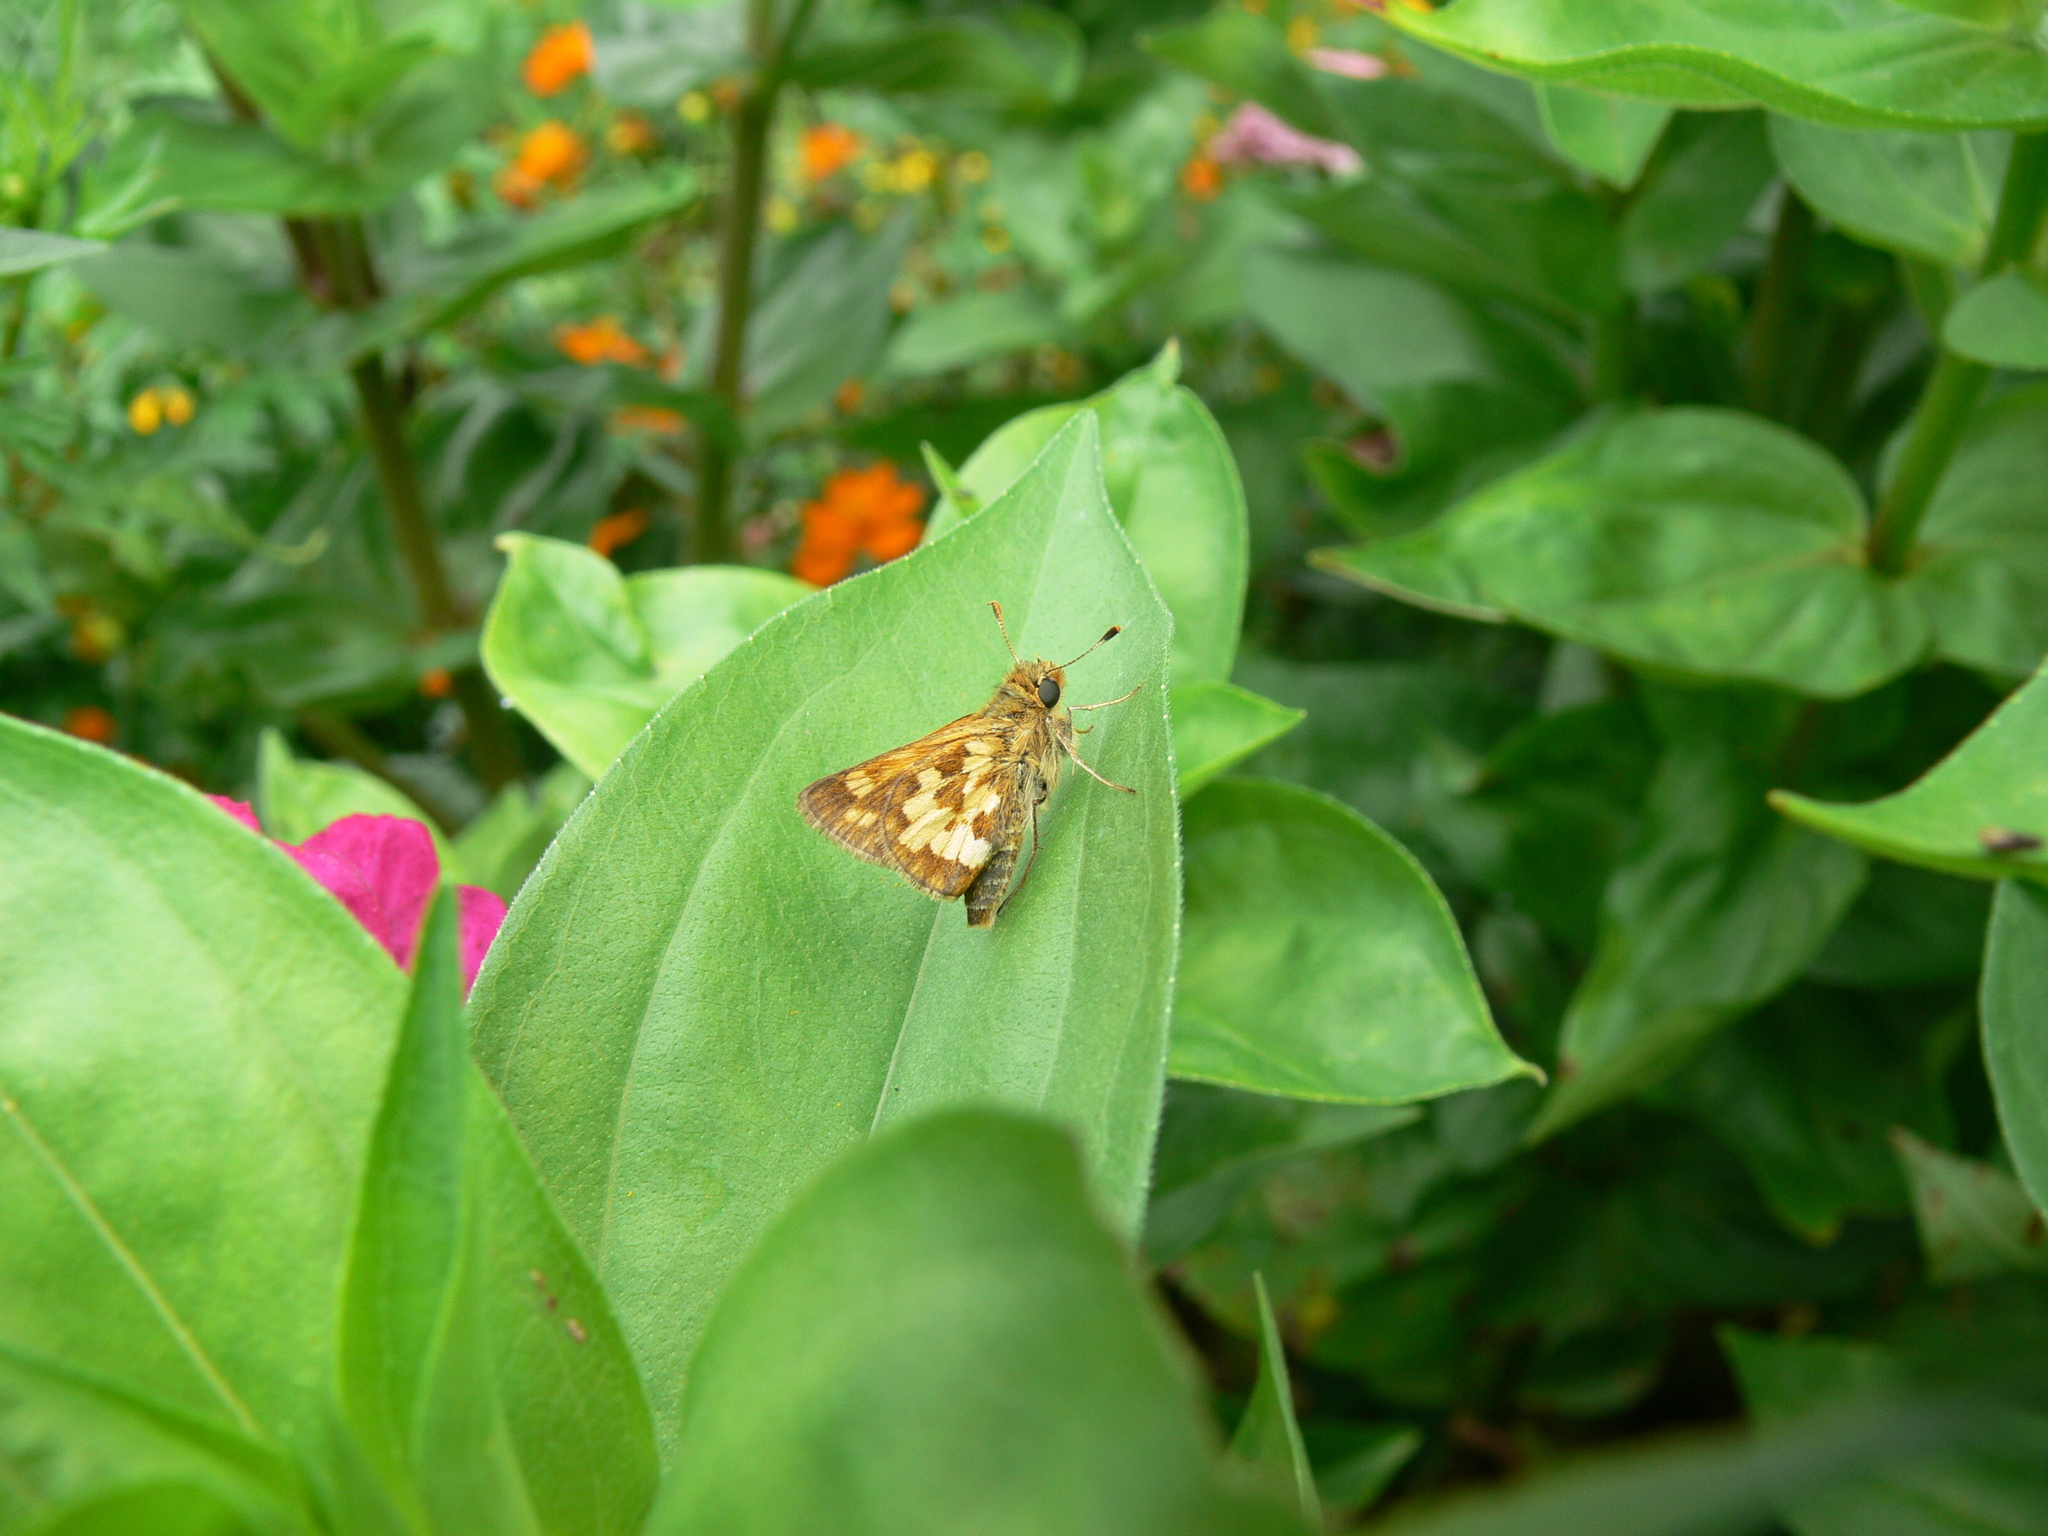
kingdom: Animalia
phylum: Arthropoda
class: Insecta
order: Lepidoptera
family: Hesperiidae
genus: Polites
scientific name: Polites coras
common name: Peck's skipper
